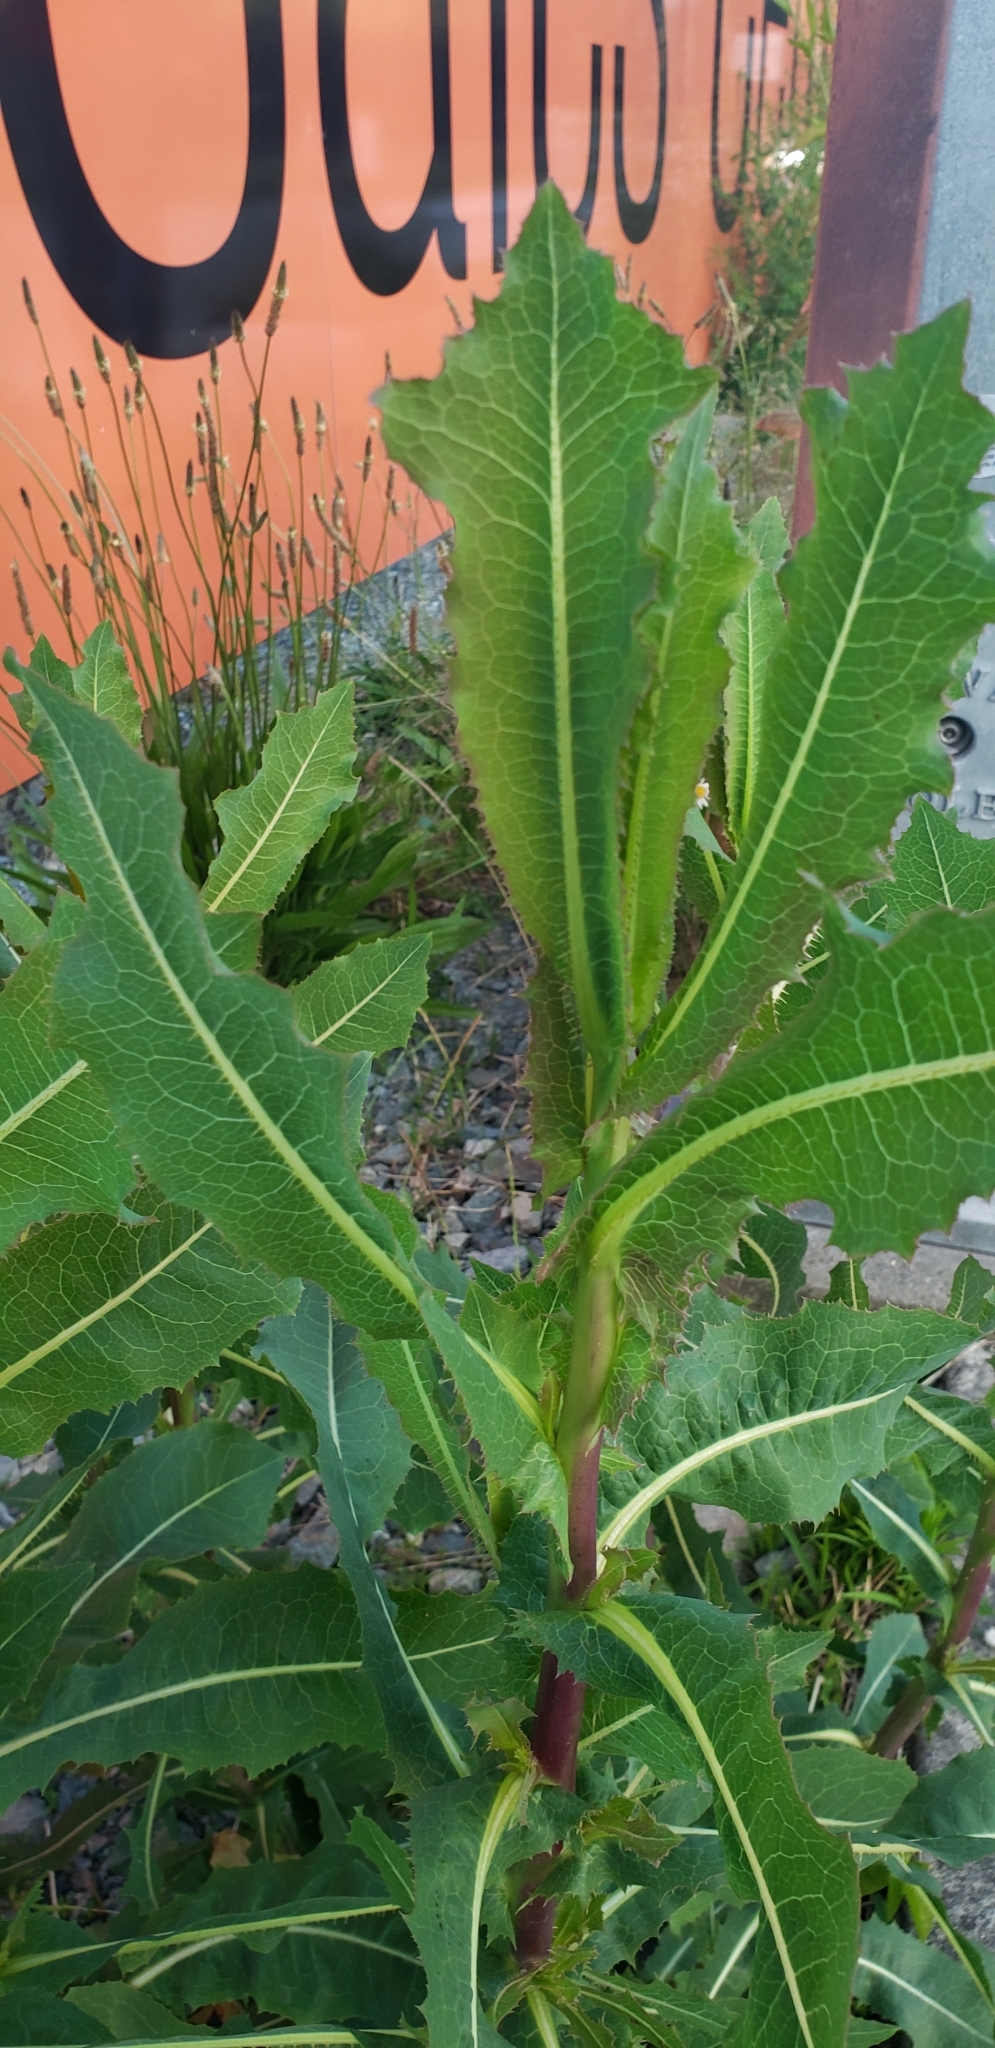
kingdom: Plantae
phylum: Tracheophyta
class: Magnoliopsida
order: Asterales
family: Asteraceae
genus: Lactuca
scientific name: Lactuca serriola
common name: Prickly lettuce
